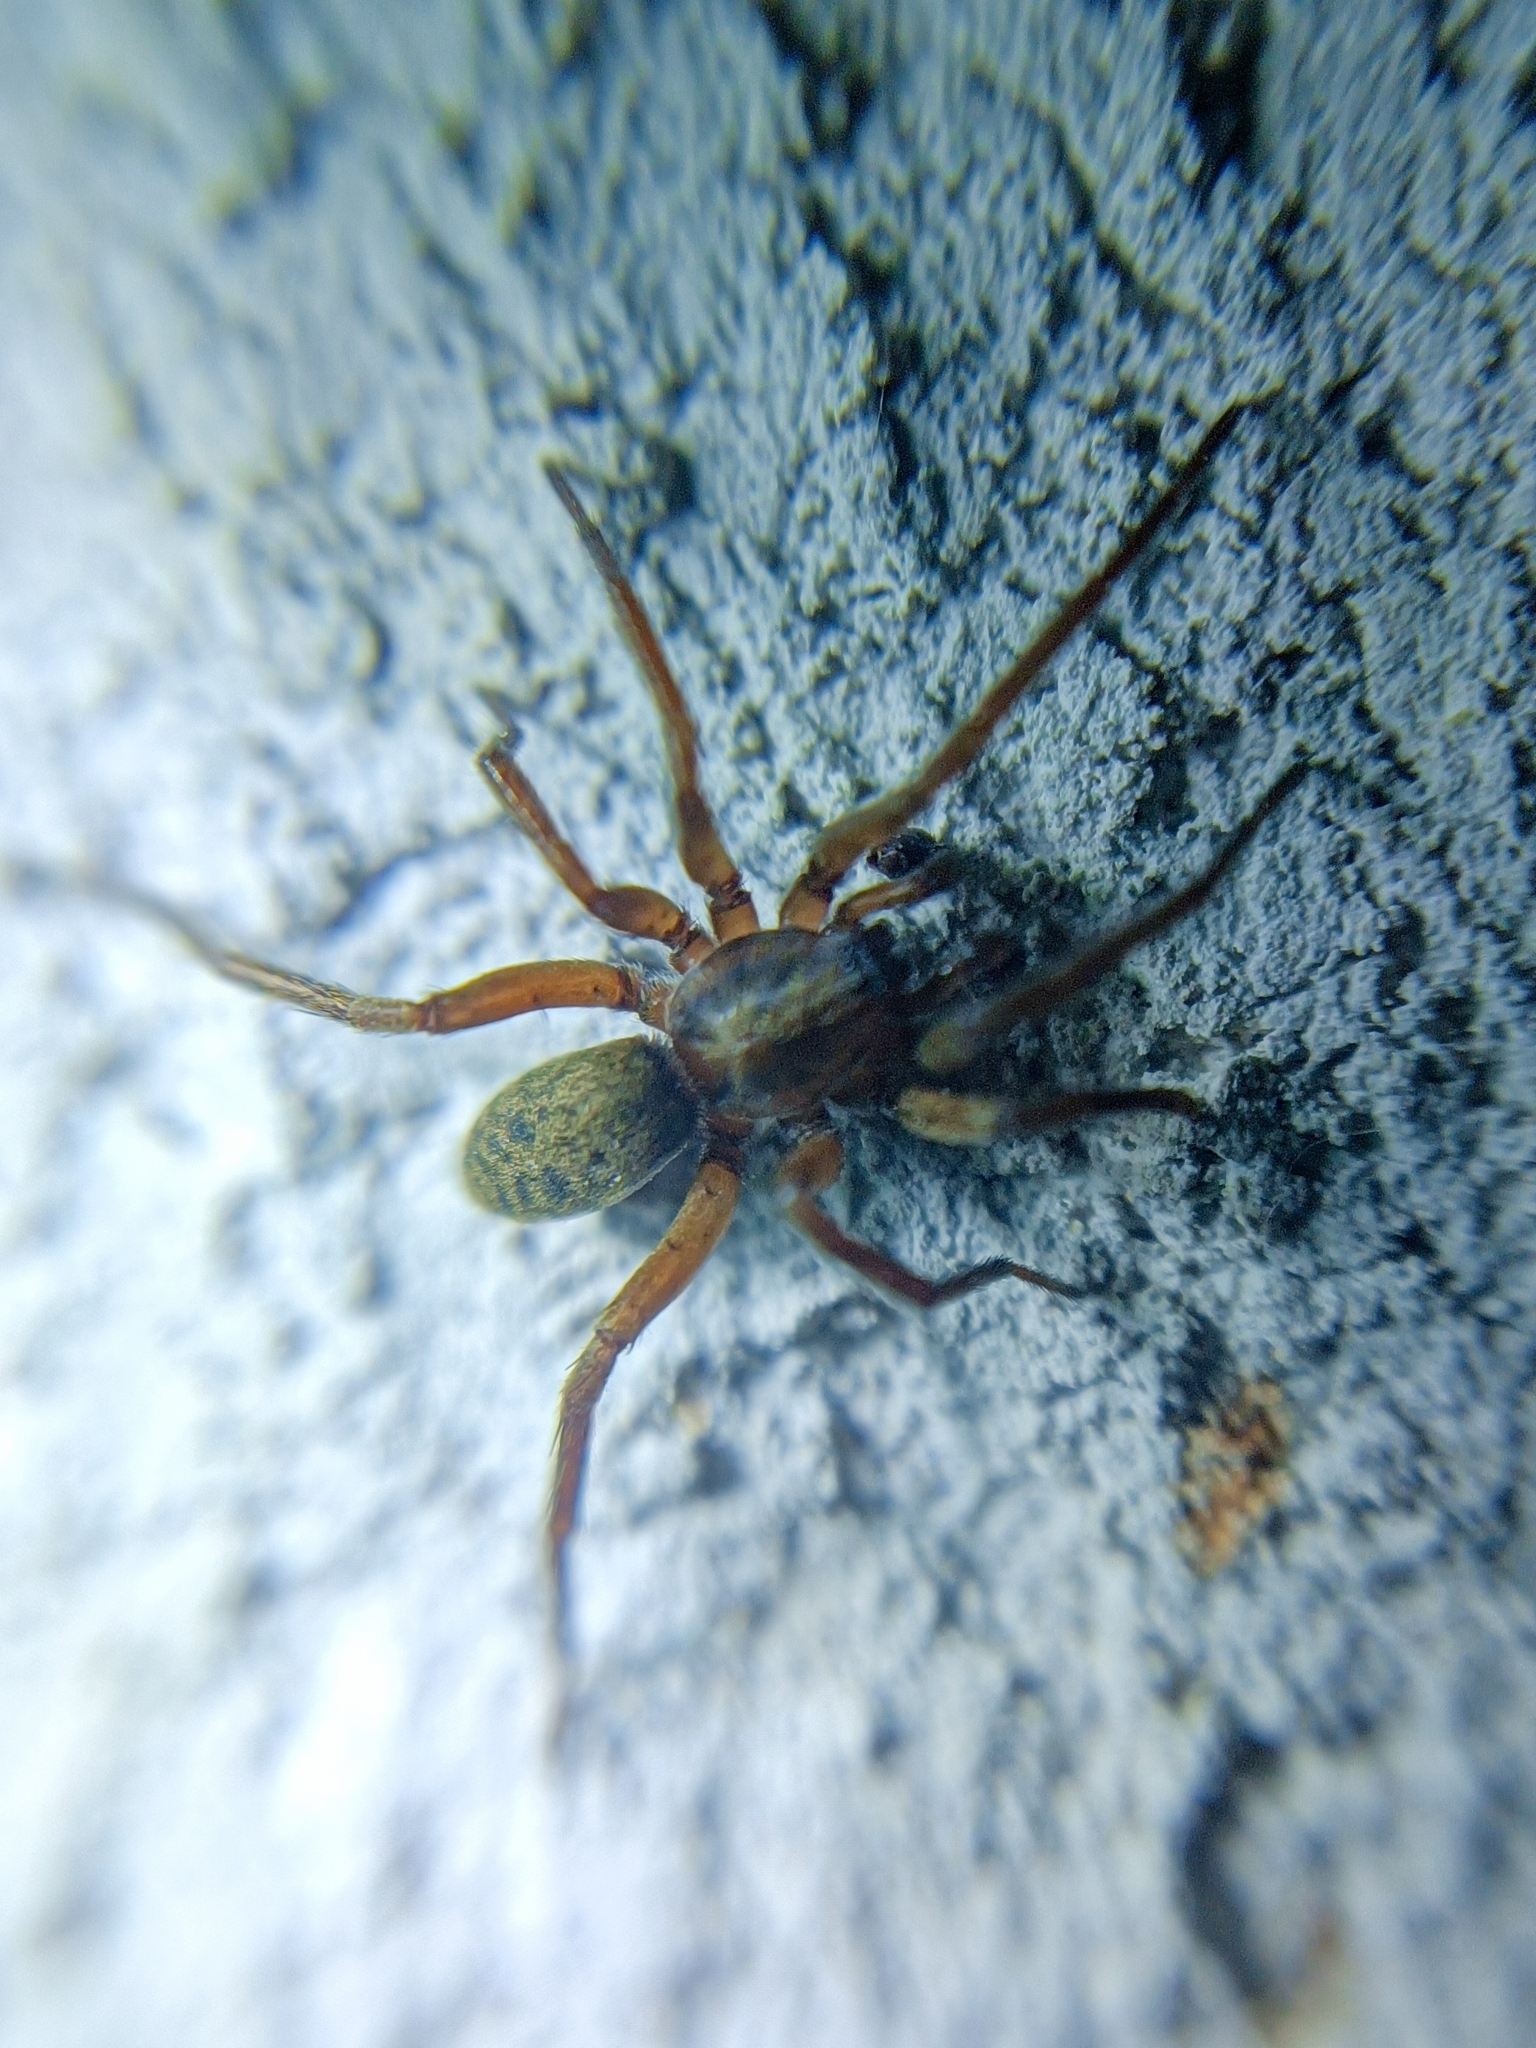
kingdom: Animalia
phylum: Arthropoda
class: Arachnida
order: Araneae
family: Liocranidae
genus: Agroeca
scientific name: Agroeca
